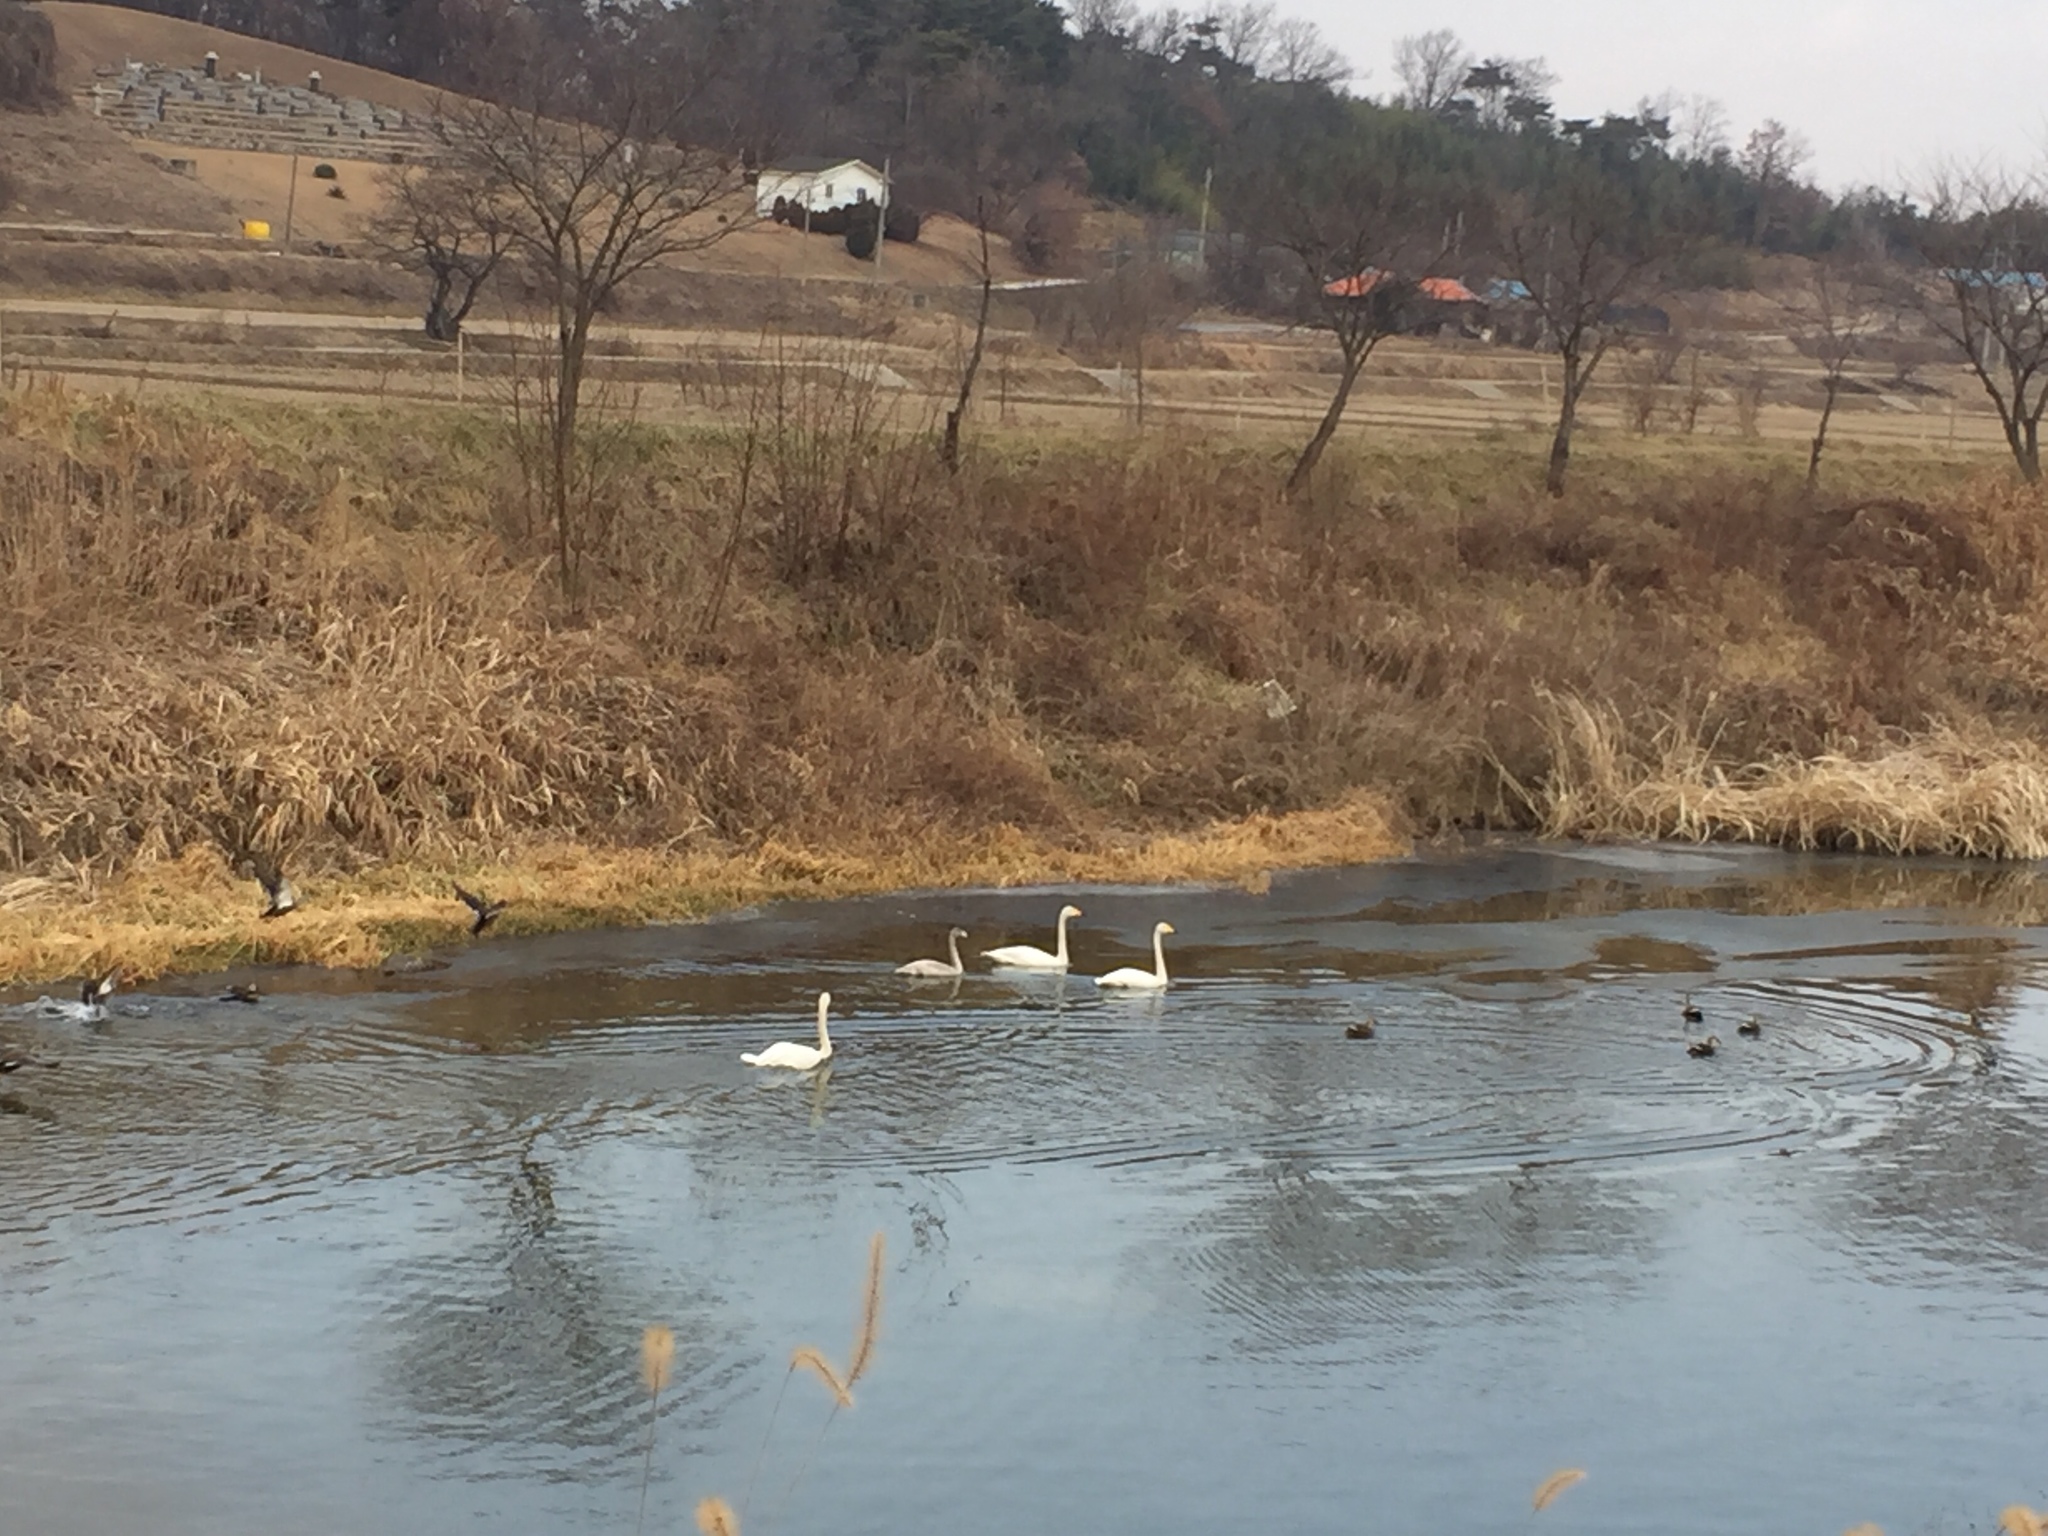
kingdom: Animalia
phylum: Chordata
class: Aves
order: Anseriformes
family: Anatidae
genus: Cygnus
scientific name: Cygnus cygnus
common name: Whooper swan
